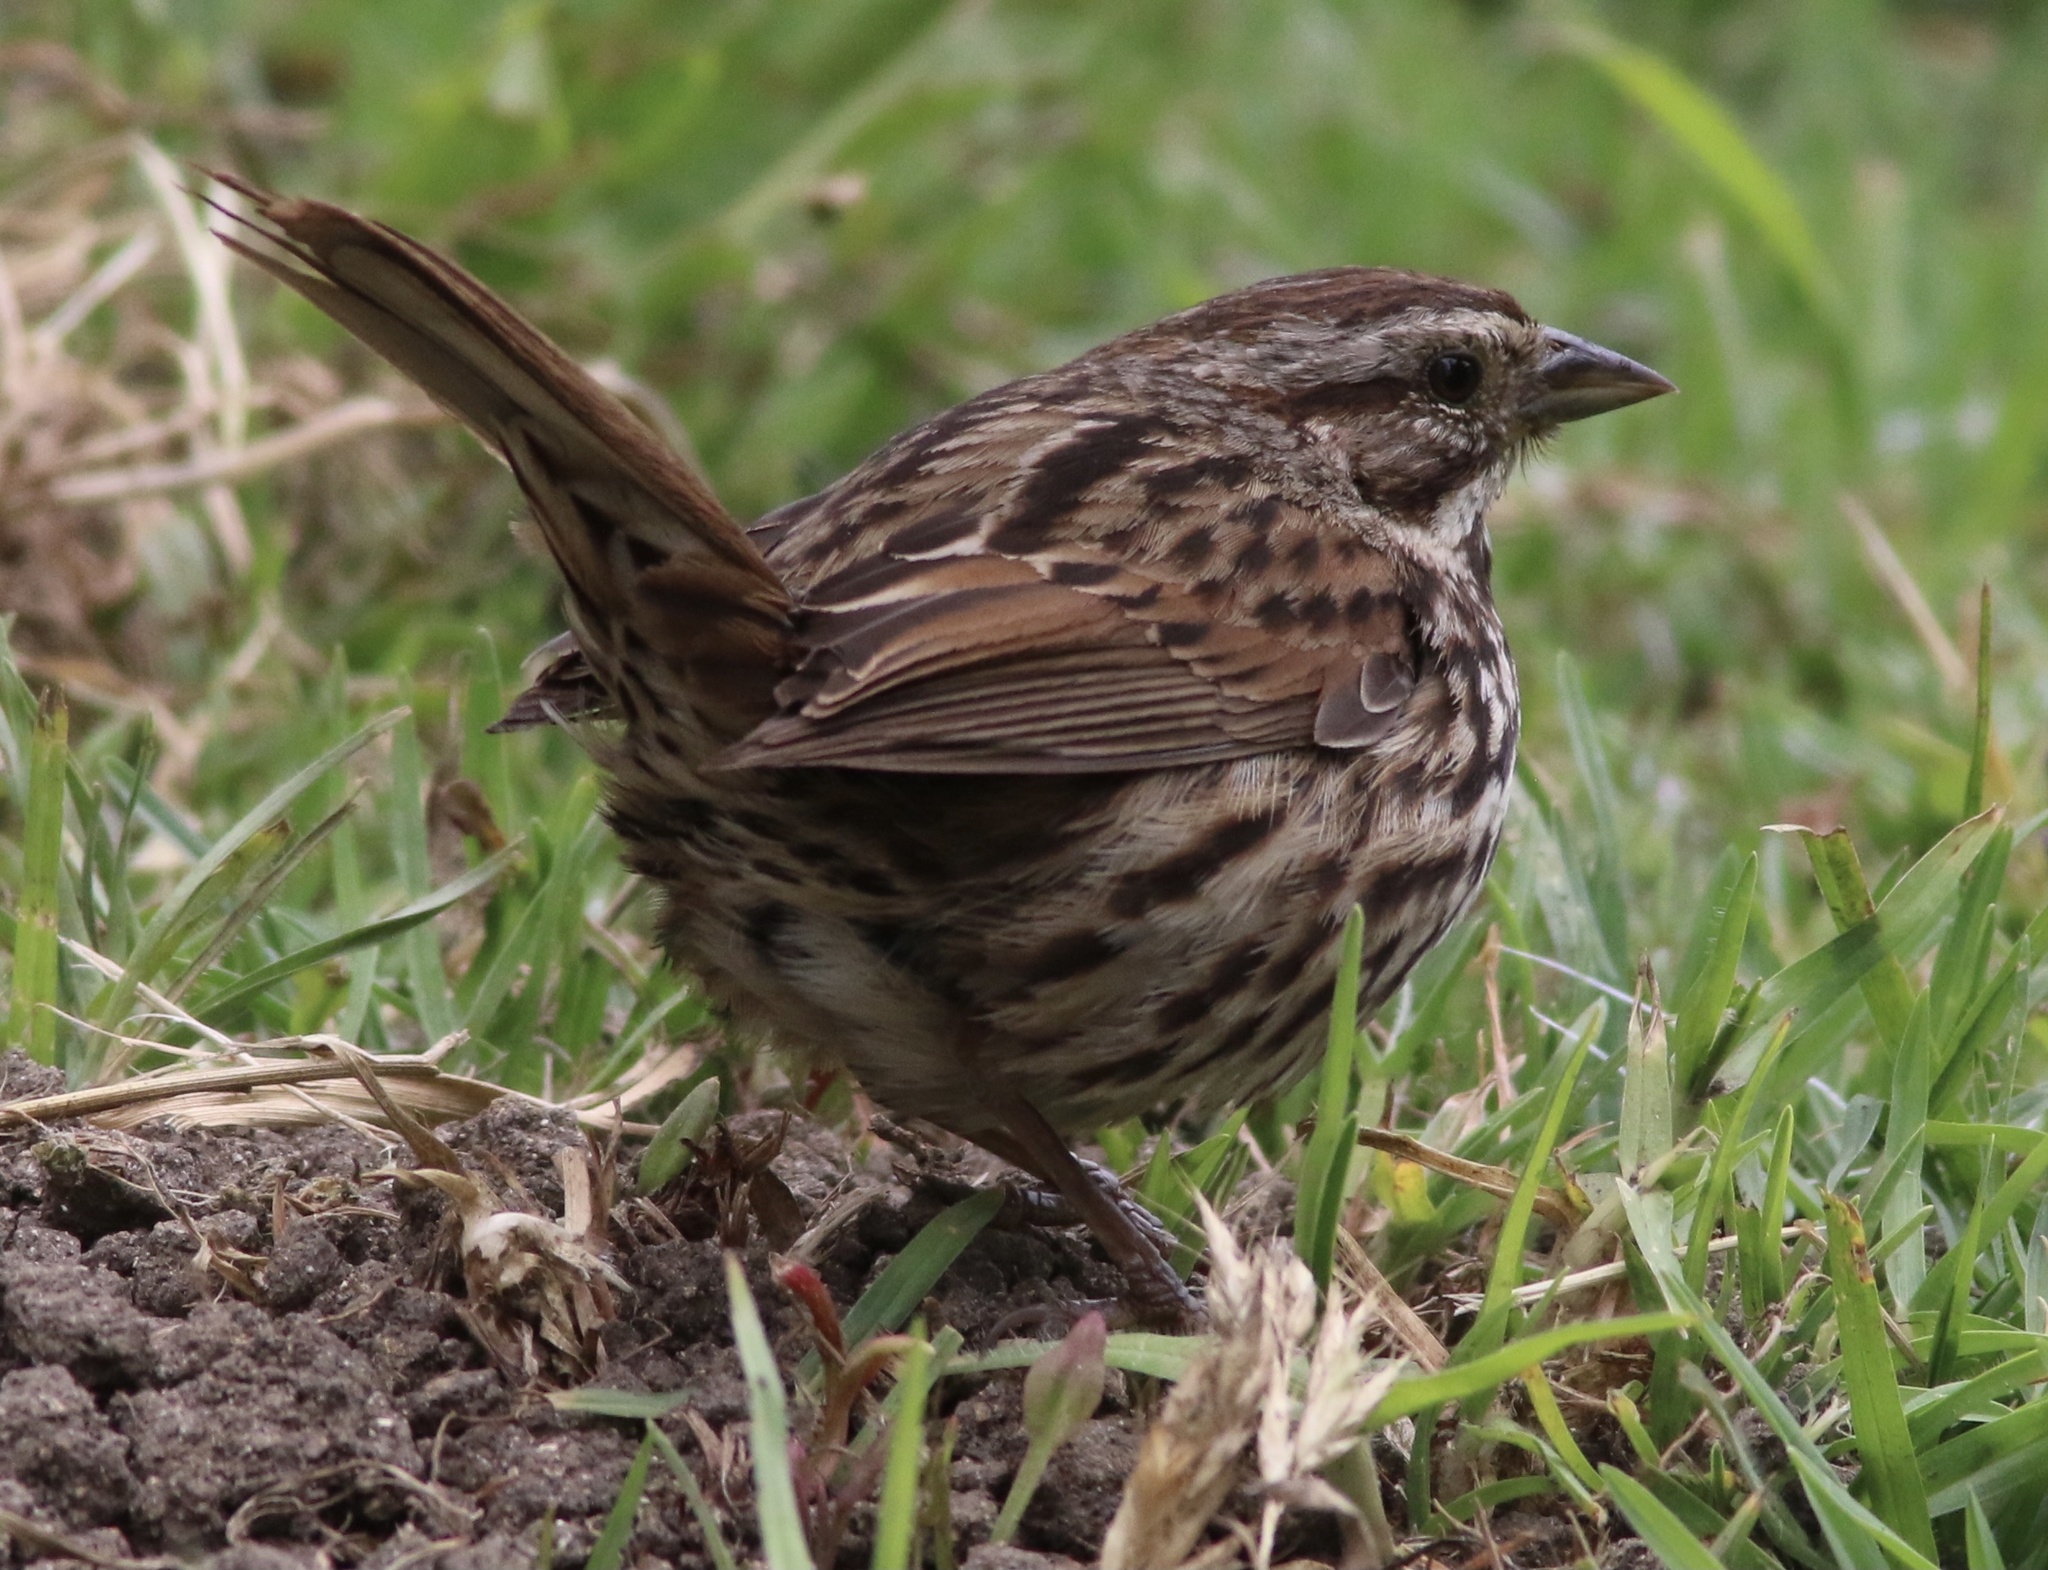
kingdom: Animalia
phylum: Chordata
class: Aves
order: Passeriformes
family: Passerellidae
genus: Melospiza
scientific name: Melospiza melodia
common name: Song sparrow
